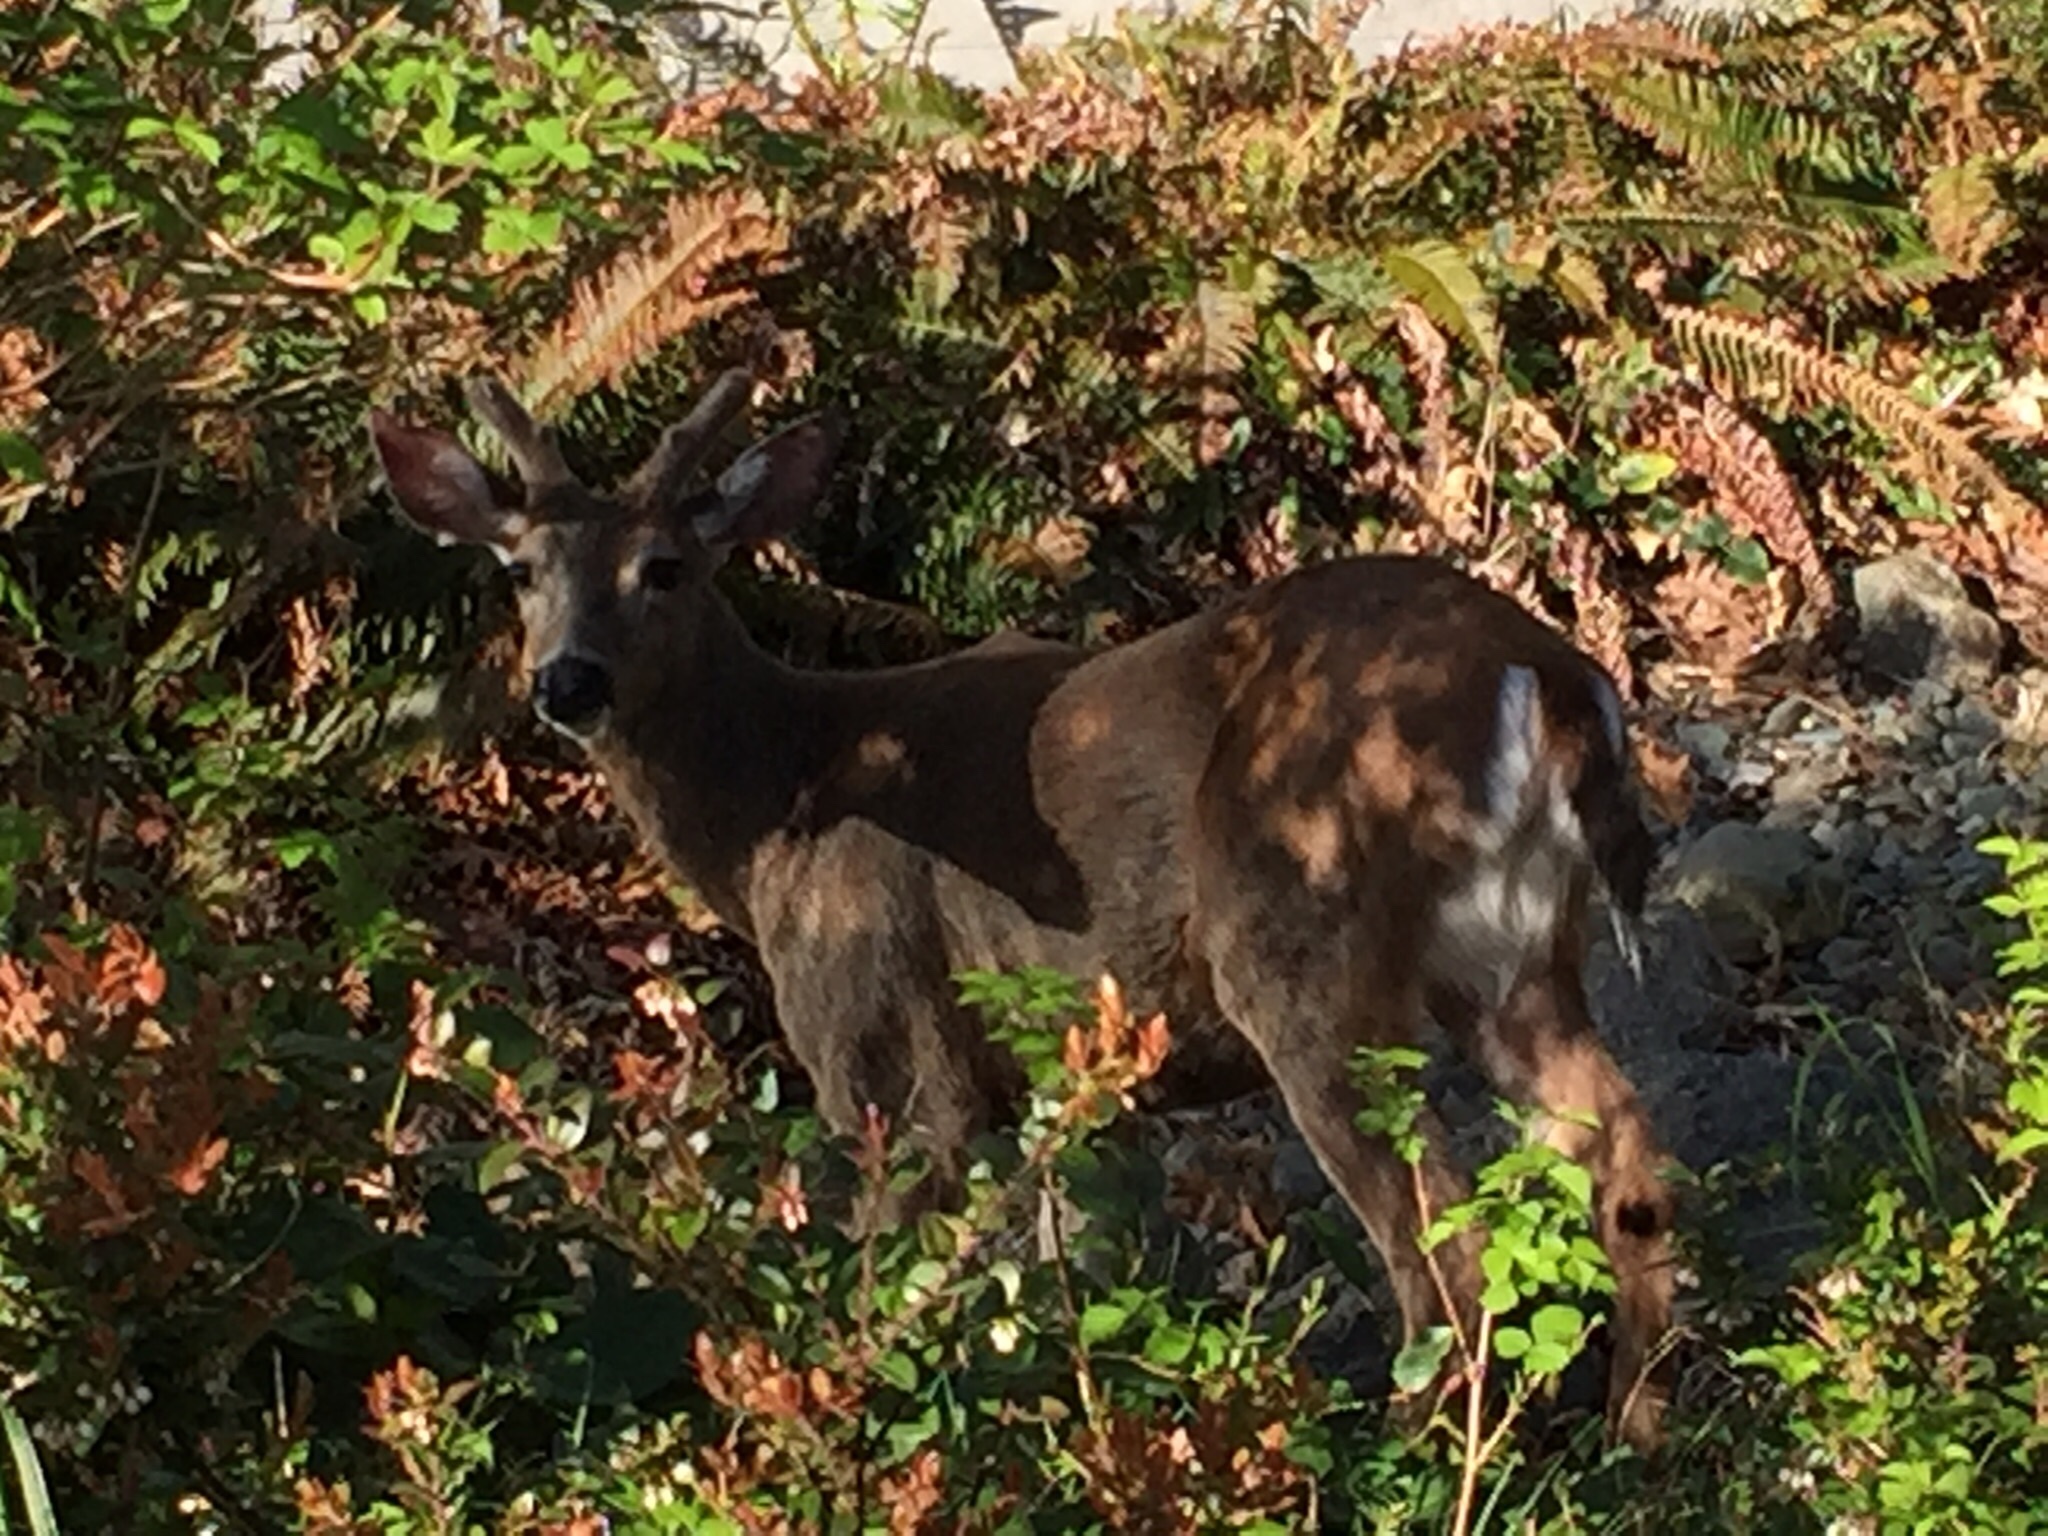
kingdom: Animalia
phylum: Chordata
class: Mammalia
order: Artiodactyla
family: Cervidae
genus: Odocoileus
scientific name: Odocoileus hemionus
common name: Mule deer
